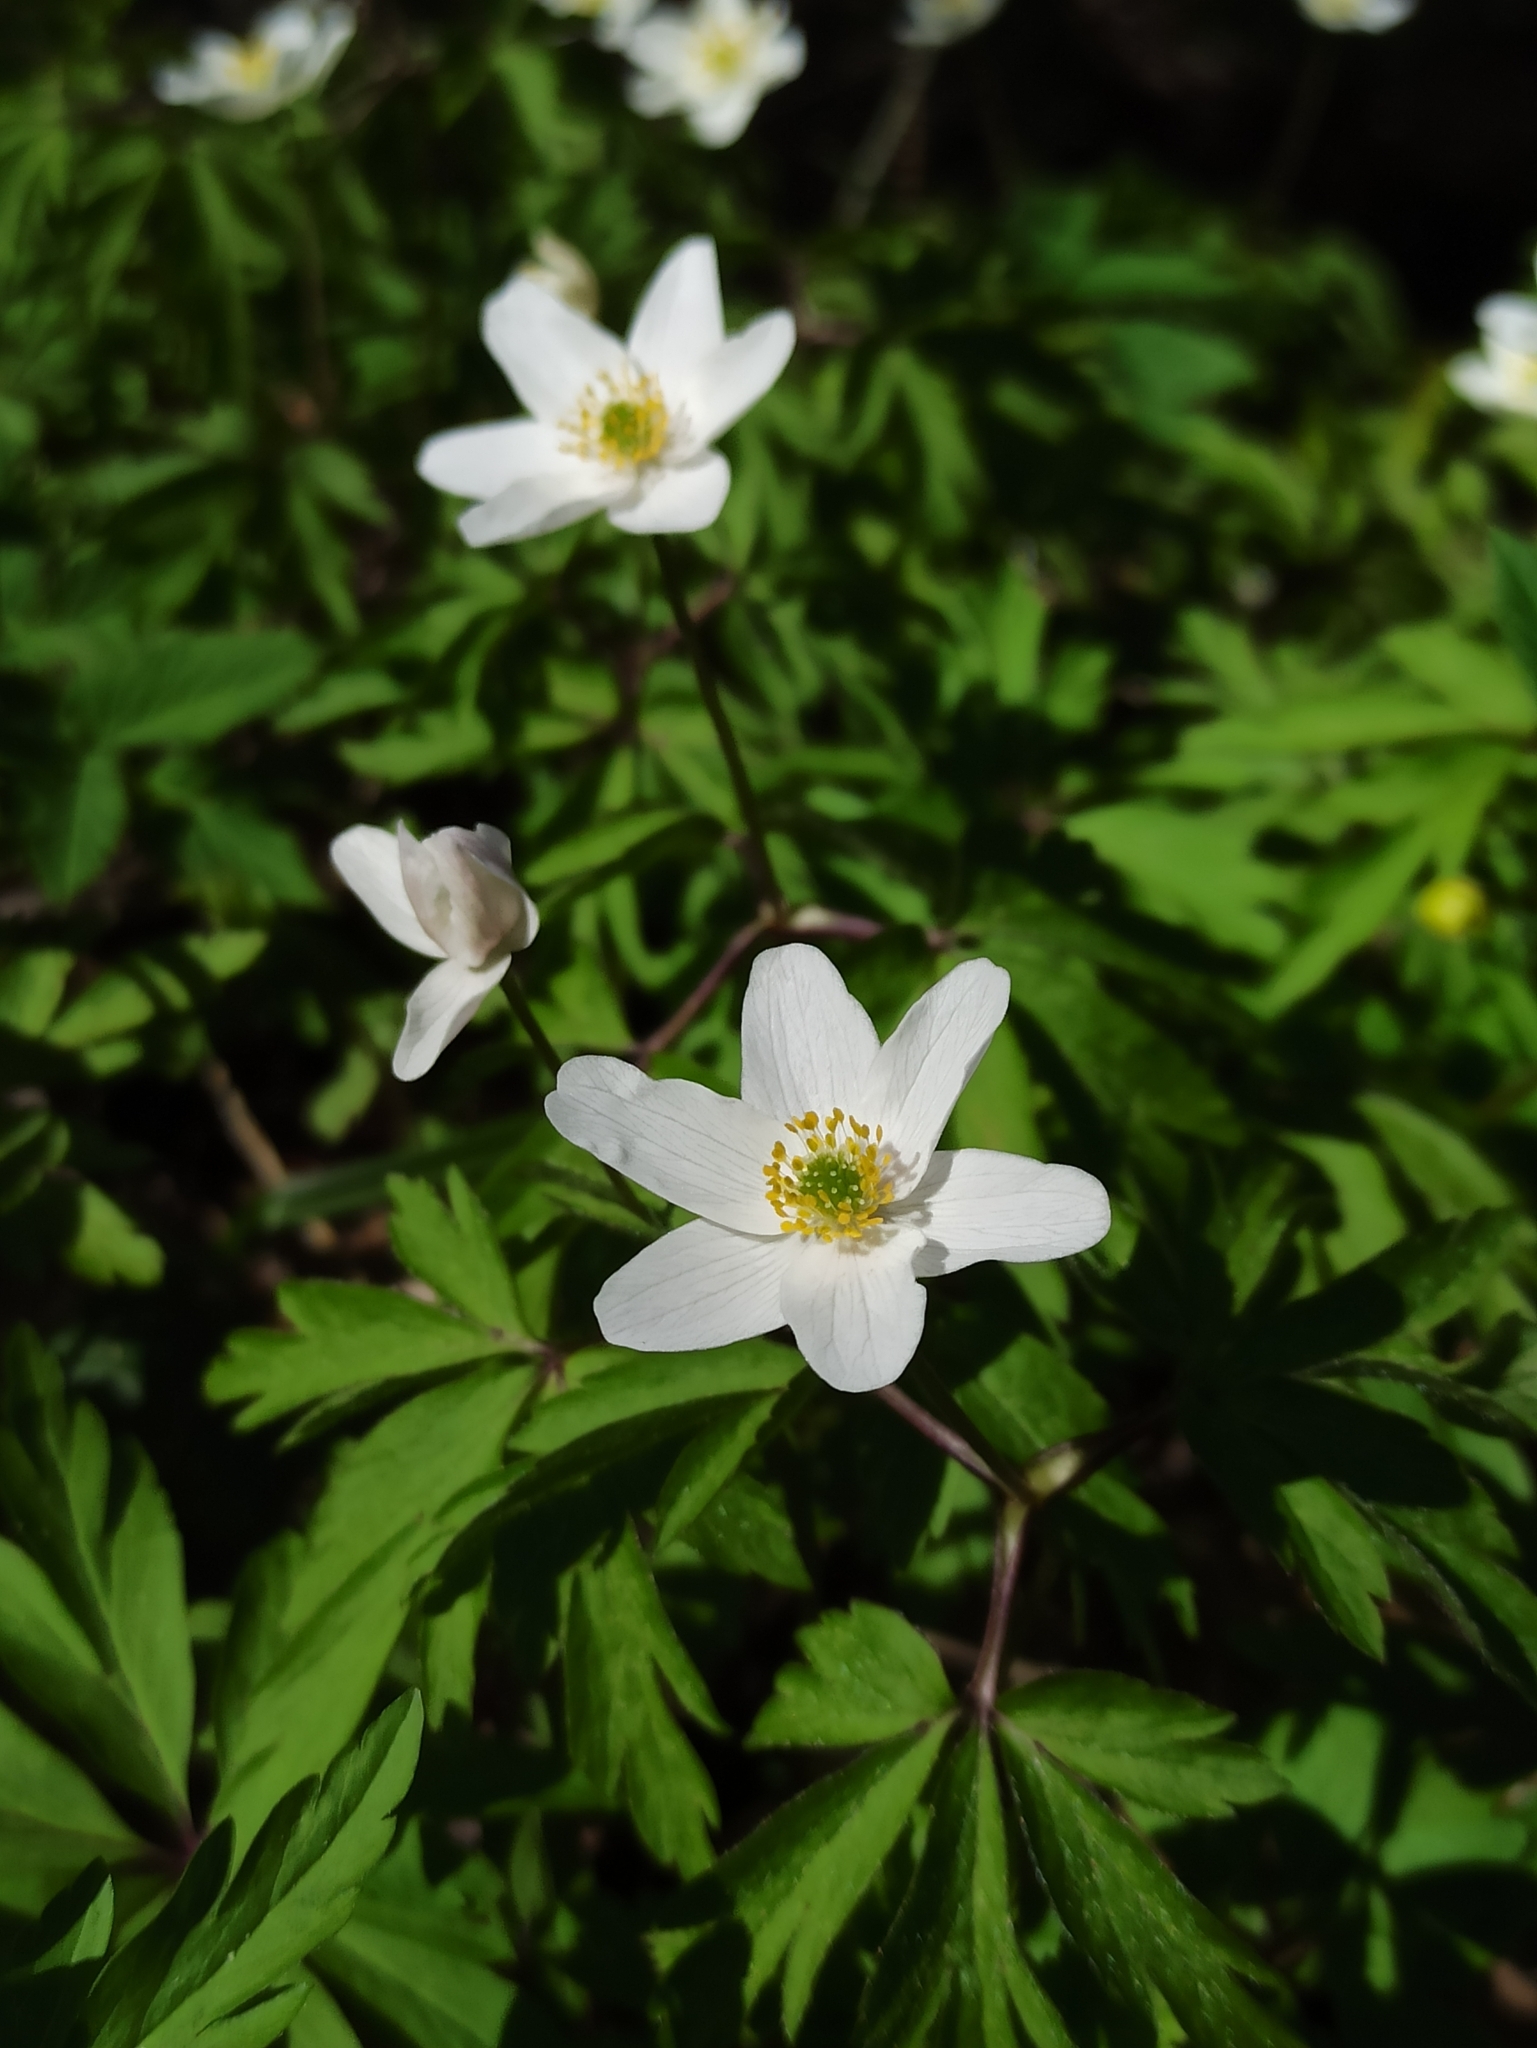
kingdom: Plantae
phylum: Tracheophyta
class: Magnoliopsida
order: Ranunculales
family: Ranunculaceae
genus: Anemone
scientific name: Anemone nemorosa
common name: Wood anemone
